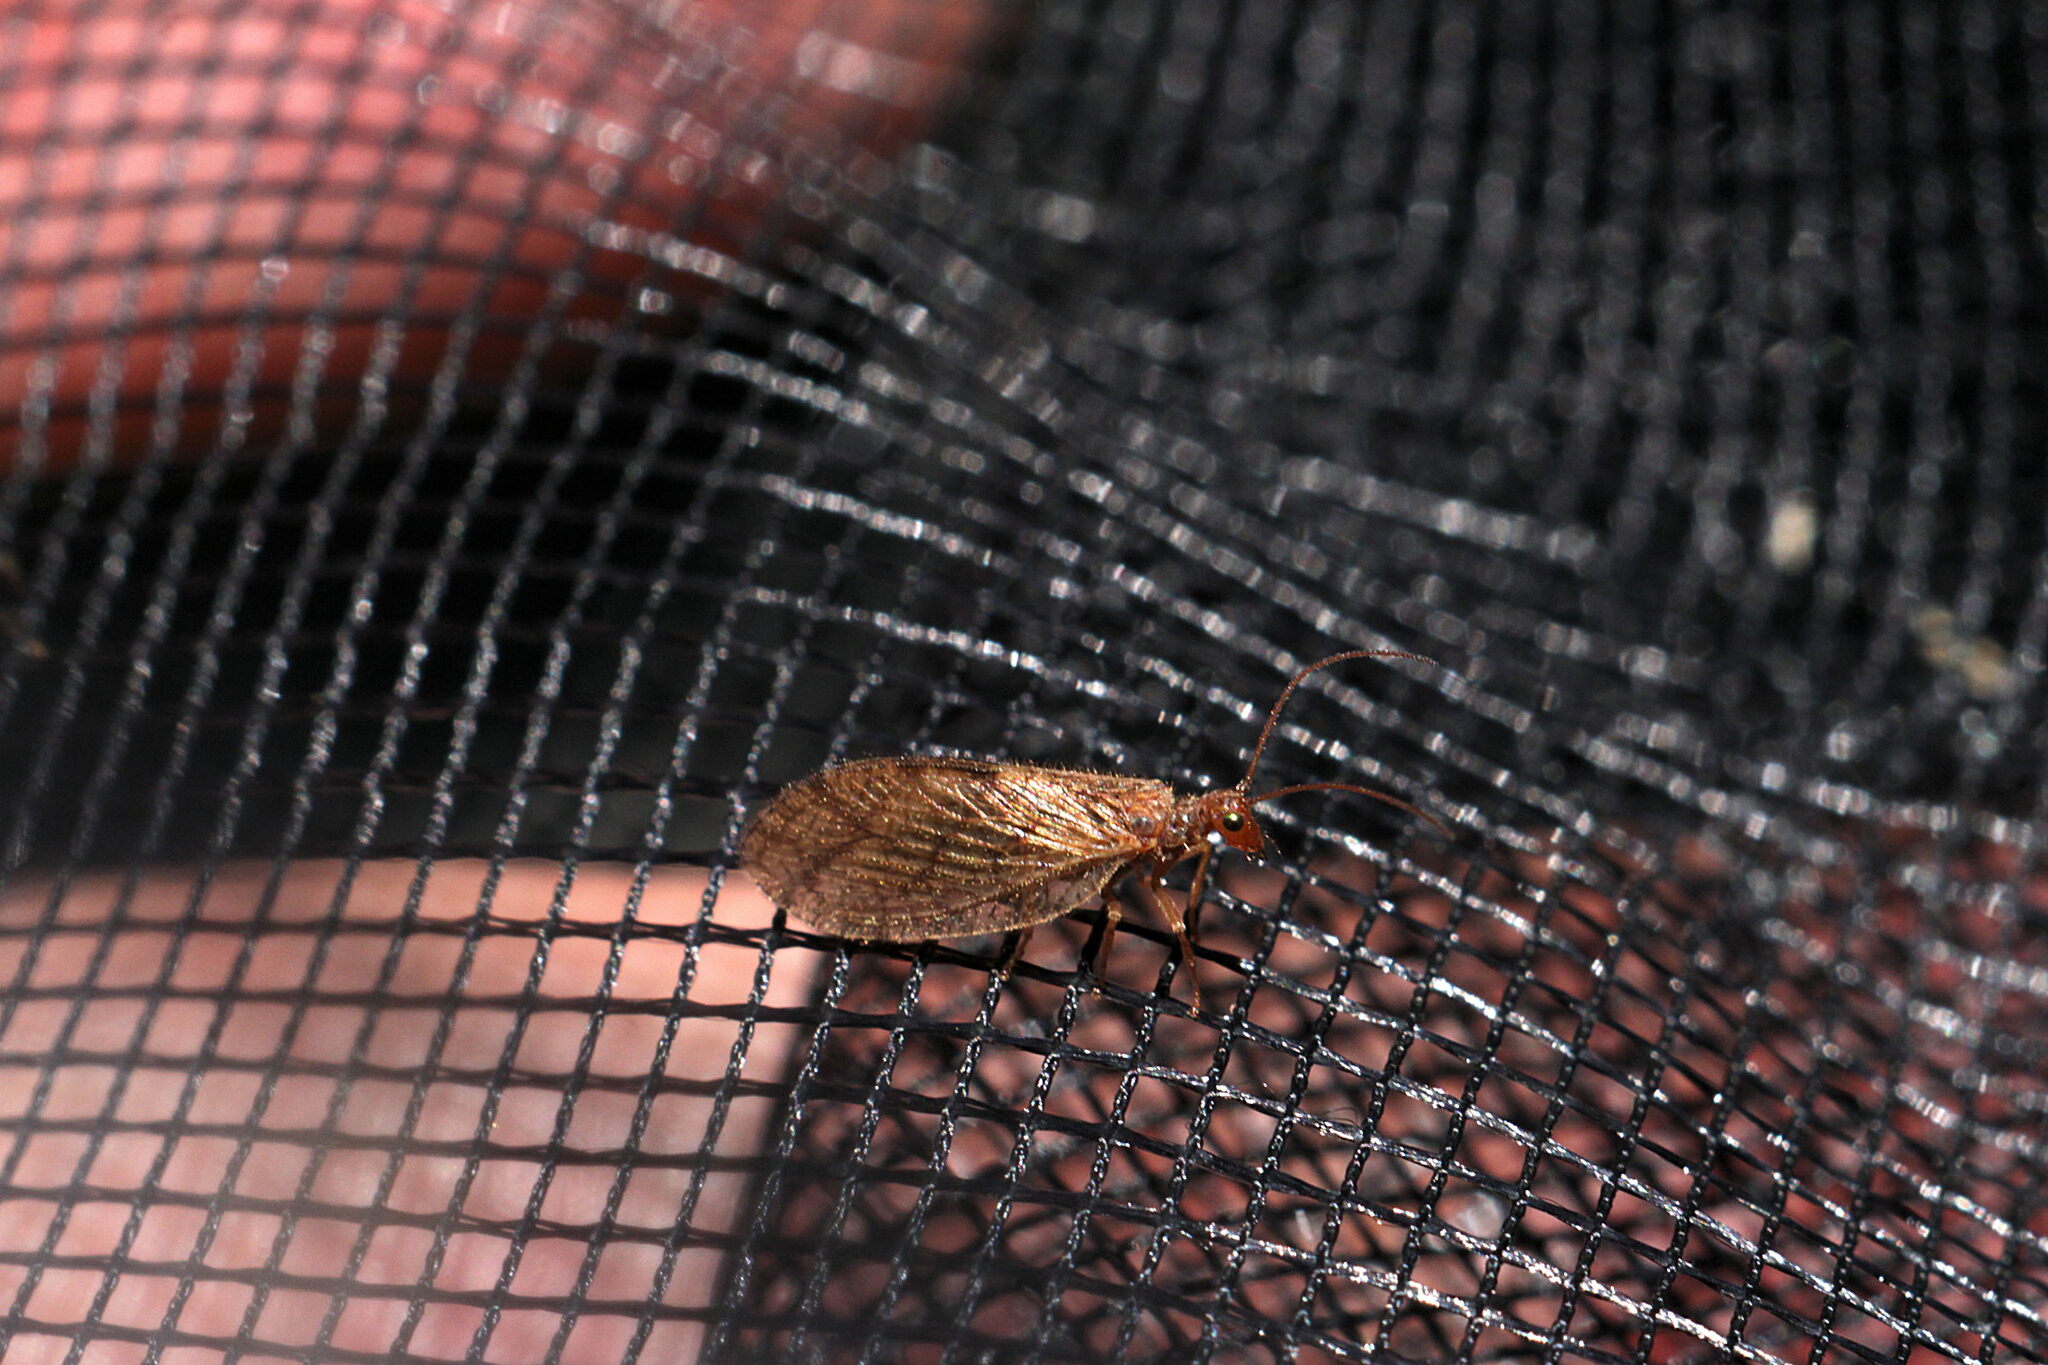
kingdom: Animalia
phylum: Arthropoda
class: Insecta
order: Neuroptera
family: Hemerobiidae
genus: Micromus
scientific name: Micromus angulatus
